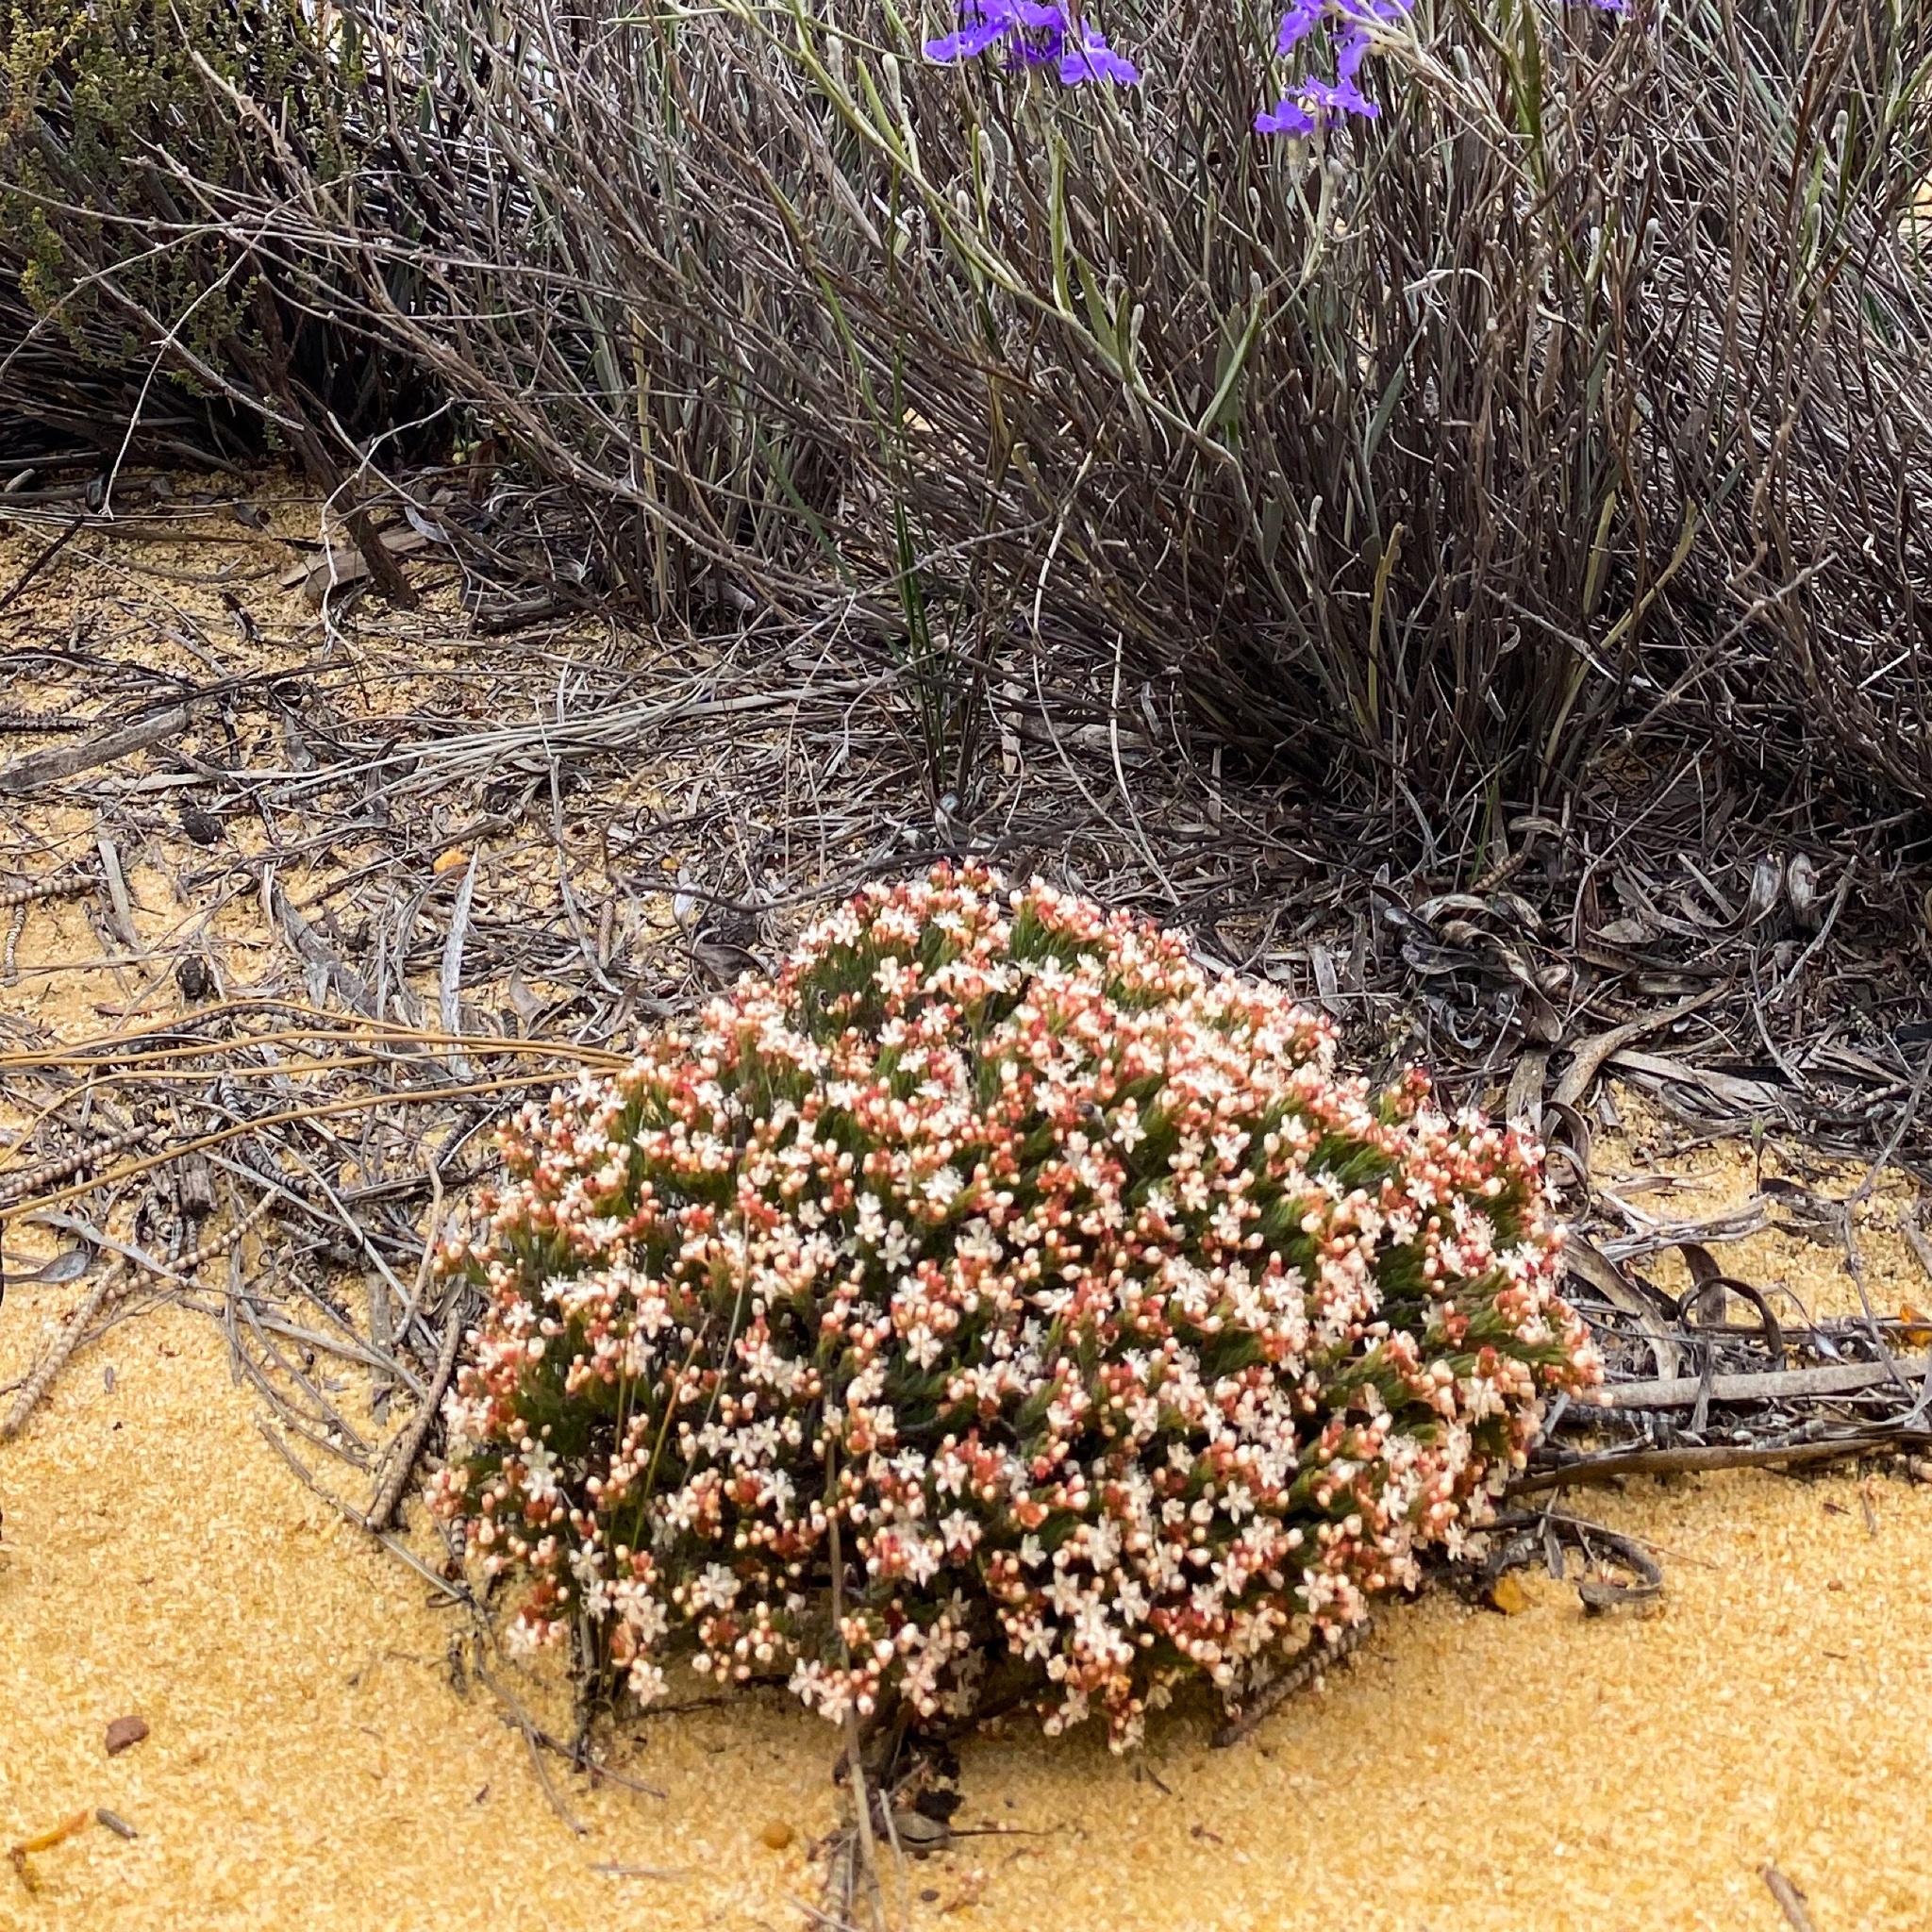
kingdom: Plantae
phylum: Tracheophyta
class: Magnoliopsida
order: Malpighiales
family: Euphorbiaceae
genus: Monotaxis
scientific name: Monotaxis grandiflora
